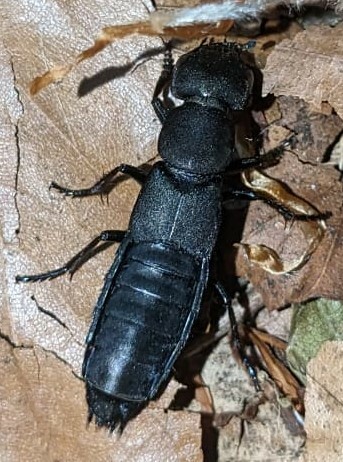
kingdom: Animalia
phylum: Arthropoda
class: Insecta
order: Coleoptera
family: Staphylinidae
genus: Ocypus
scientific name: Ocypus olens
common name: Devil's coach-horse
